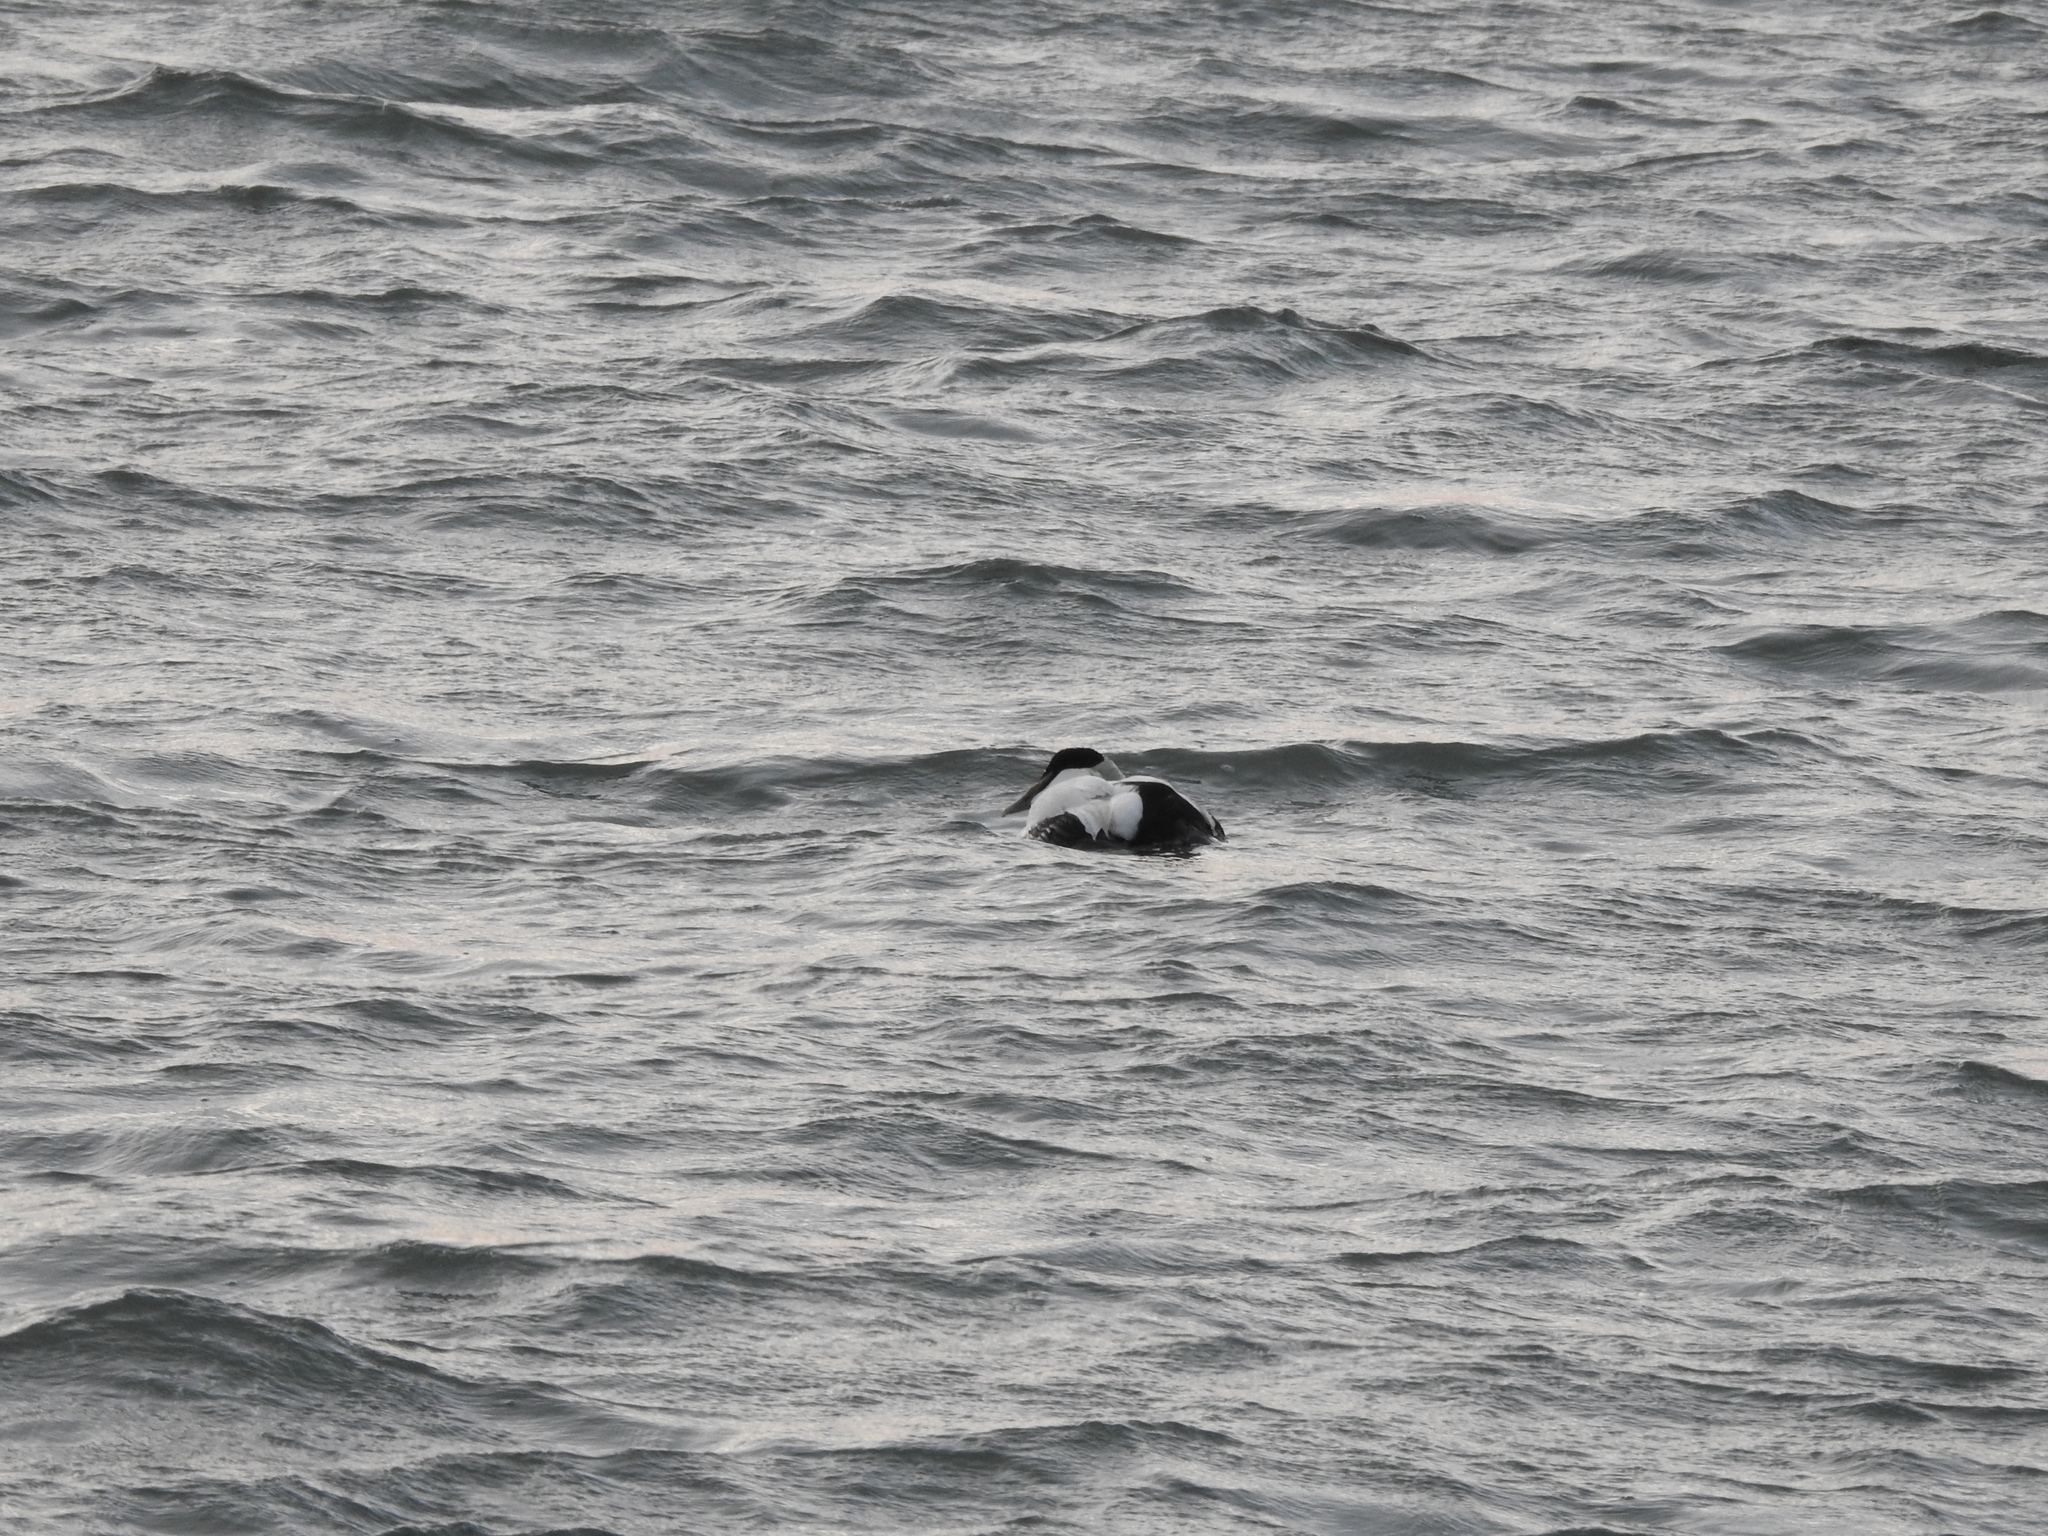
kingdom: Animalia
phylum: Chordata
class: Aves
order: Anseriformes
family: Anatidae
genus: Somateria
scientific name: Somateria mollissima
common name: Common eider
